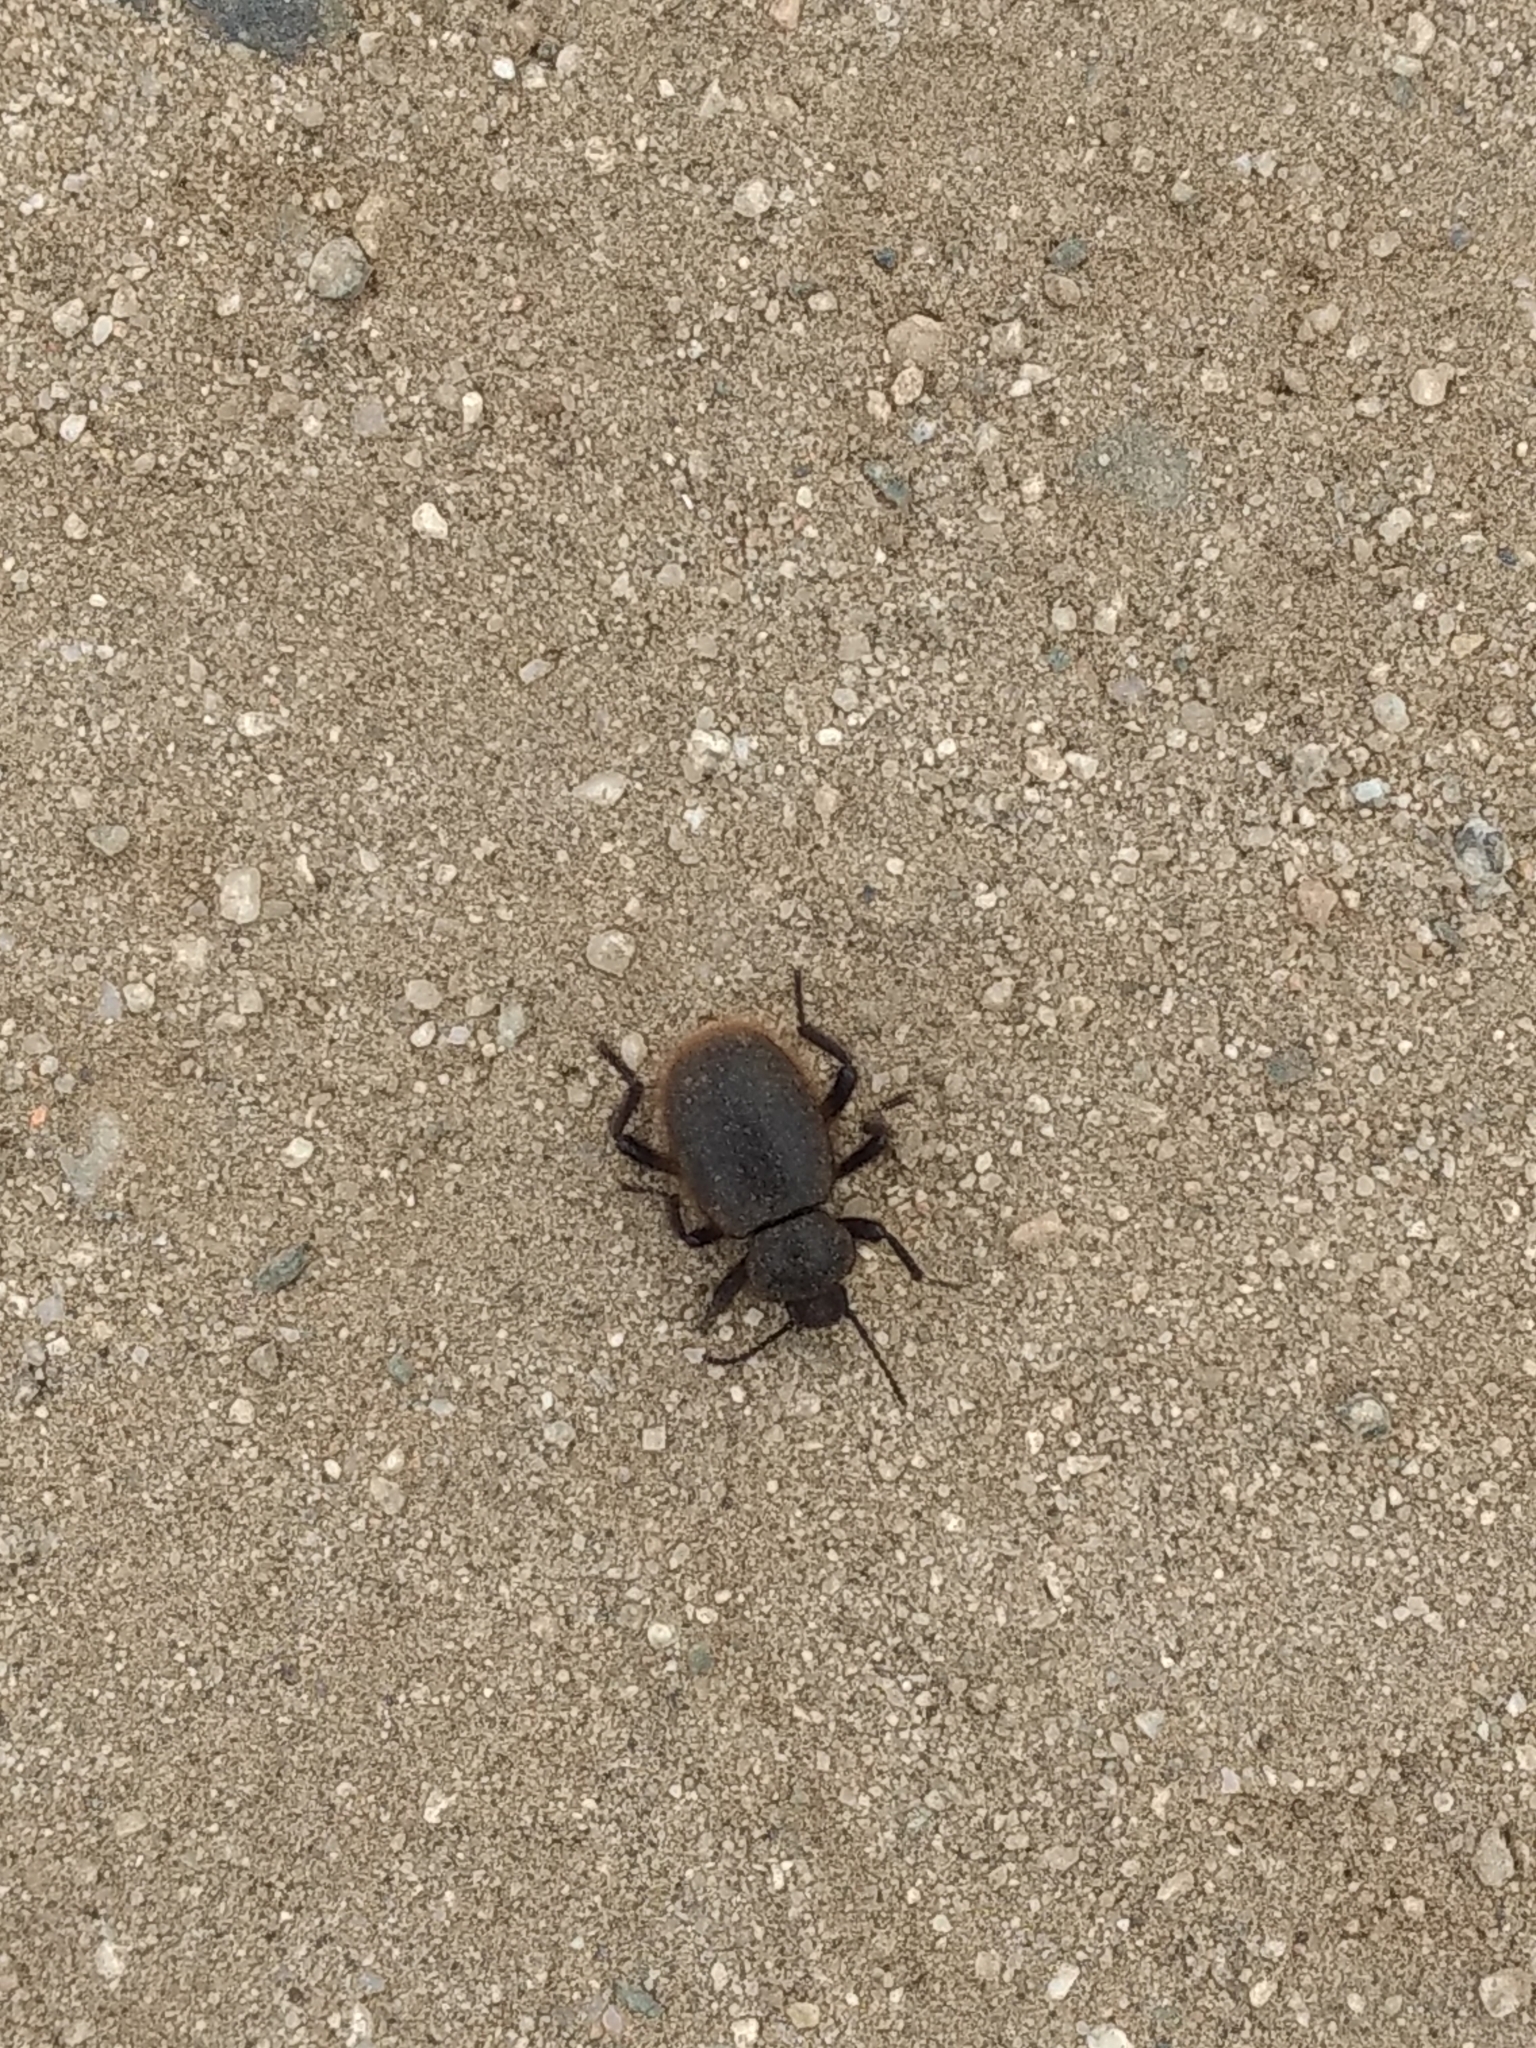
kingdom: Animalia
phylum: Arthropoda
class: Insecta
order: Coleoptera
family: Tenebrionidae
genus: Eleodes
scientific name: Eleodes osculans
